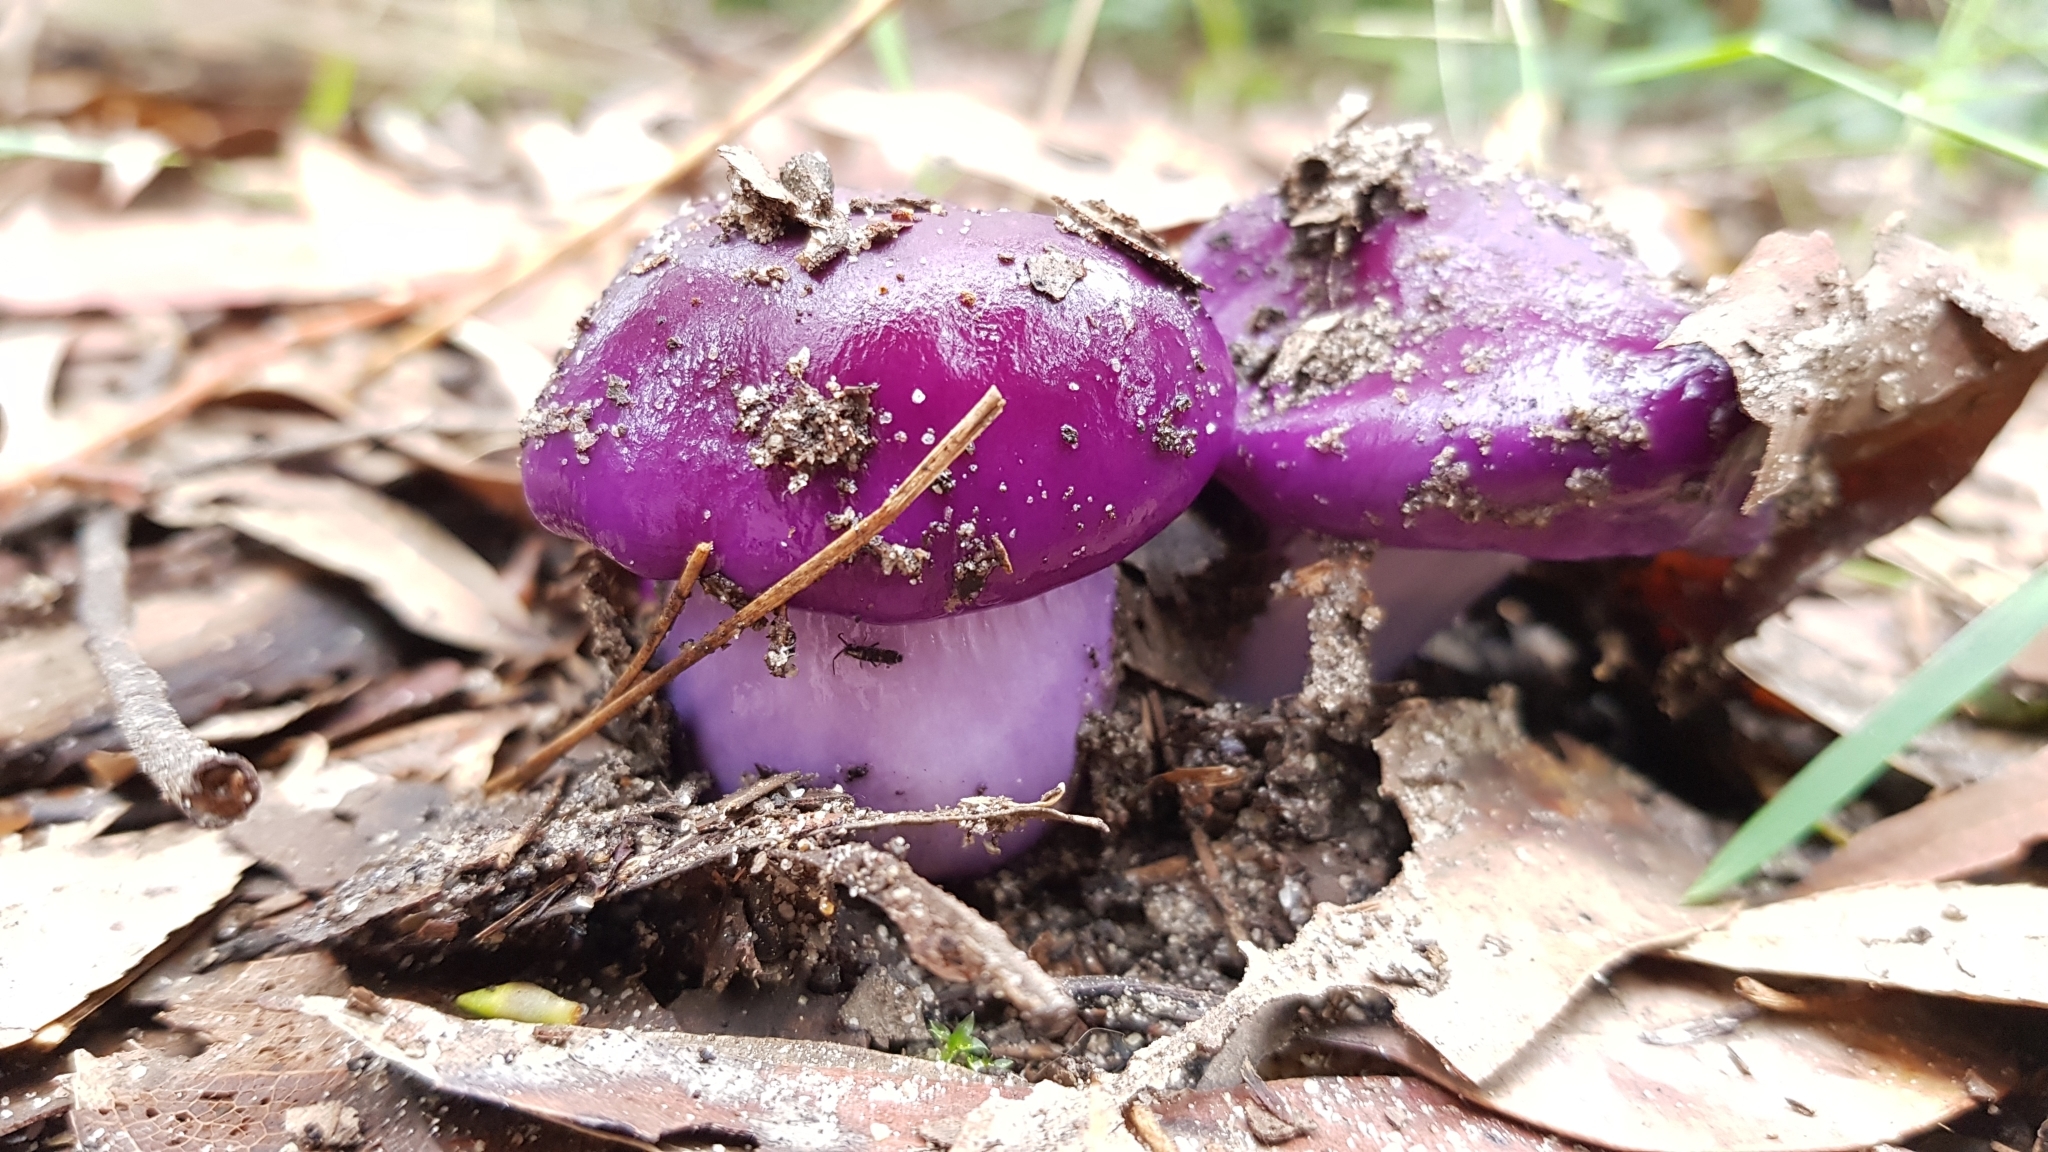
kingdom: Fungi
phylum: Basidiomycota
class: Agaricomycetes
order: Agaricales
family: Cortinariaceae
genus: Cortinarius
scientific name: Cortinarius archeri
